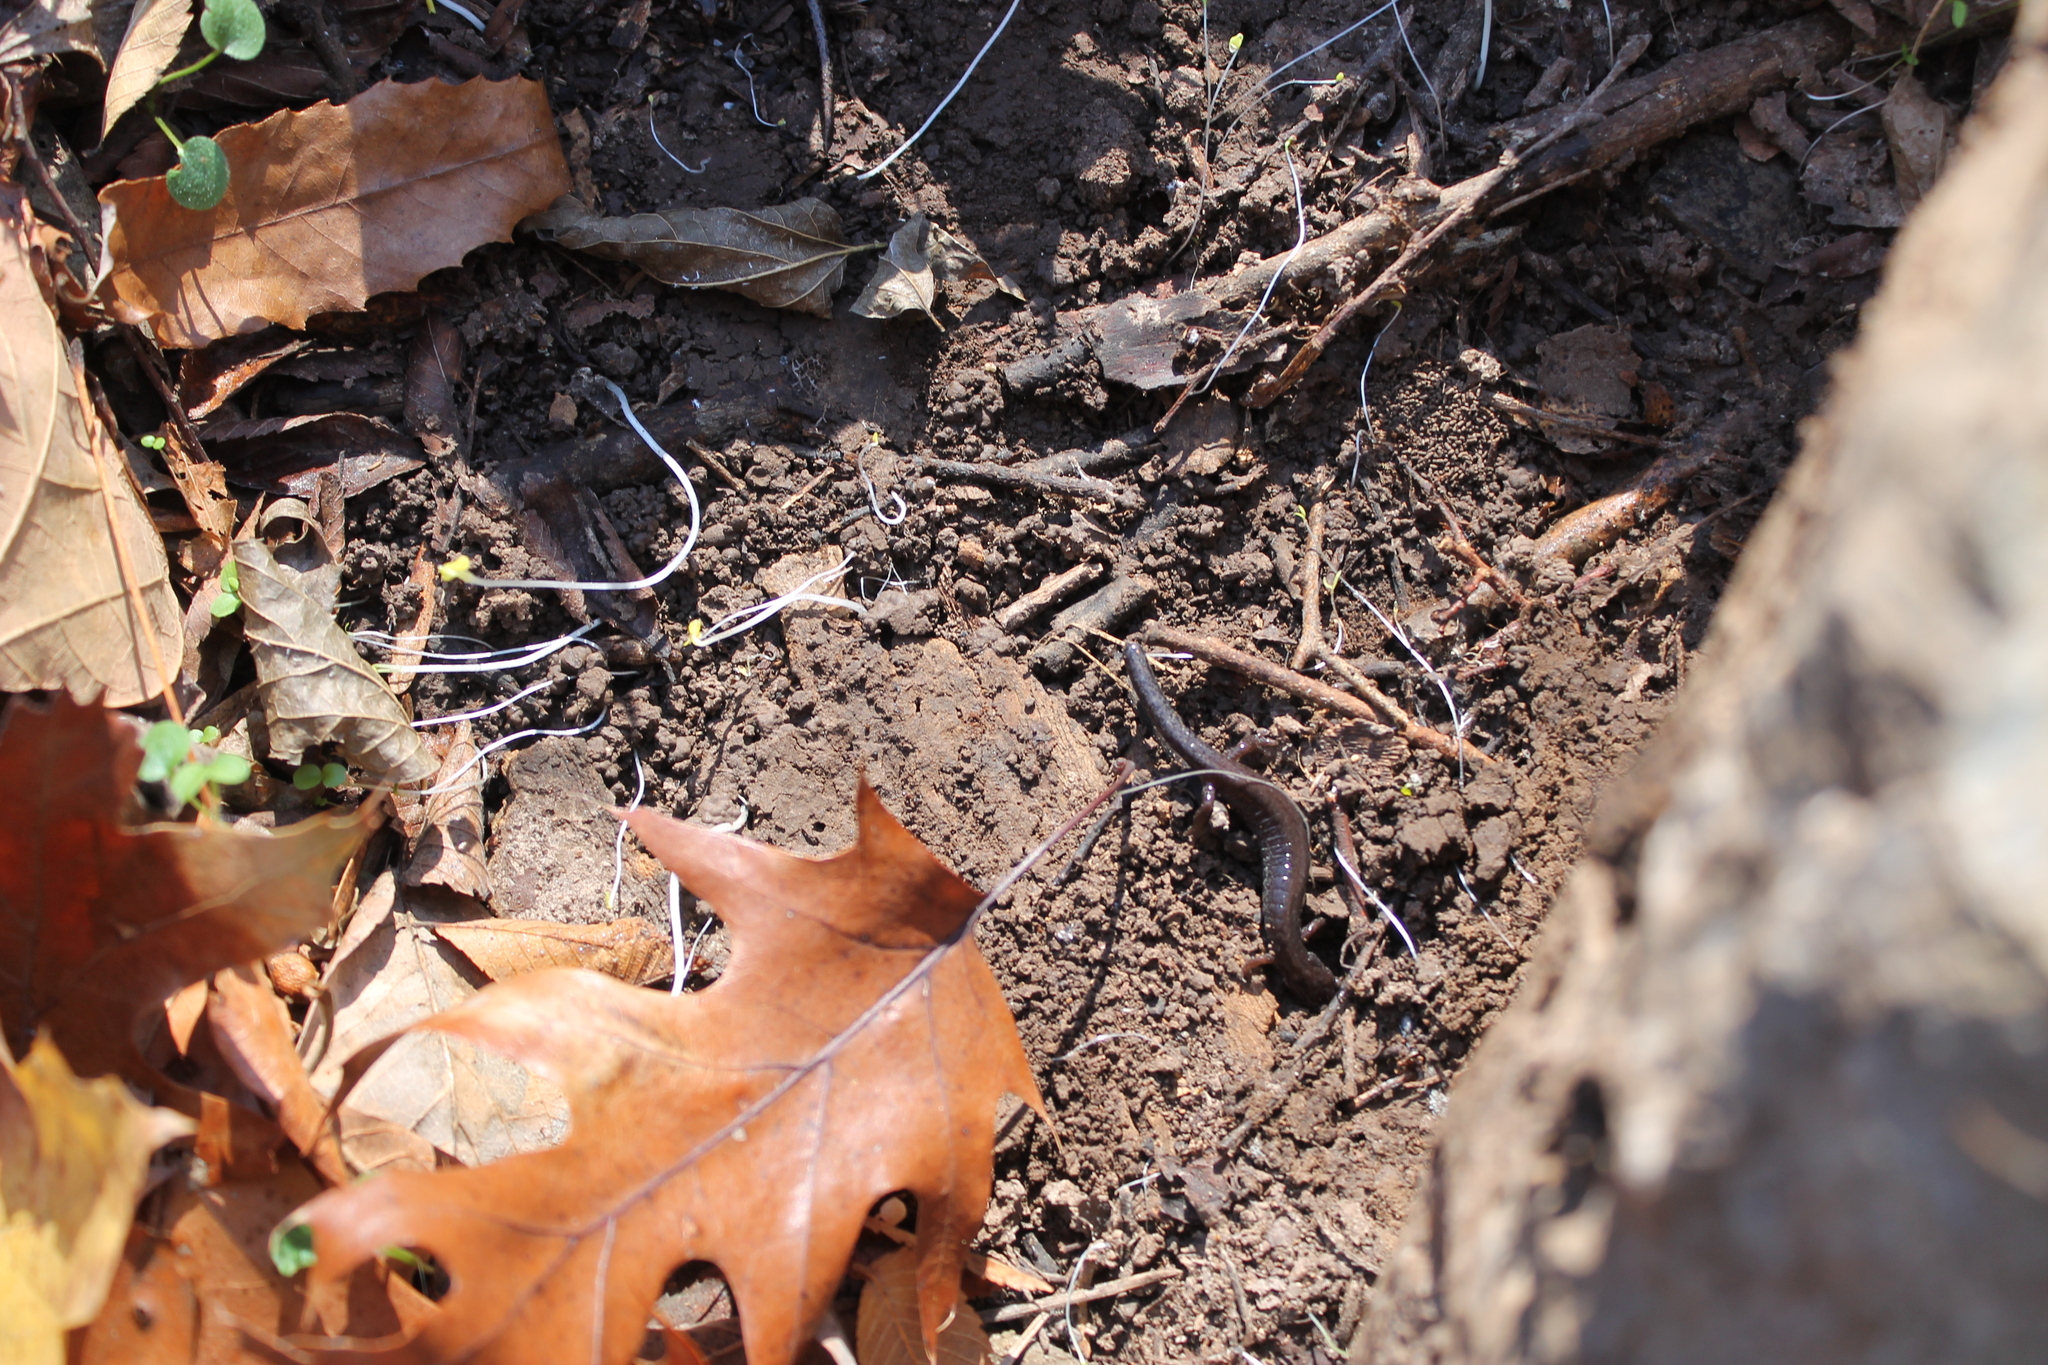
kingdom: Animalia
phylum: Chordata
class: Amphibia
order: Caudata
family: Plethodontidae
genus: Plethodon
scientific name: Plethodon dorsalis
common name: Northern zigzag salamander
